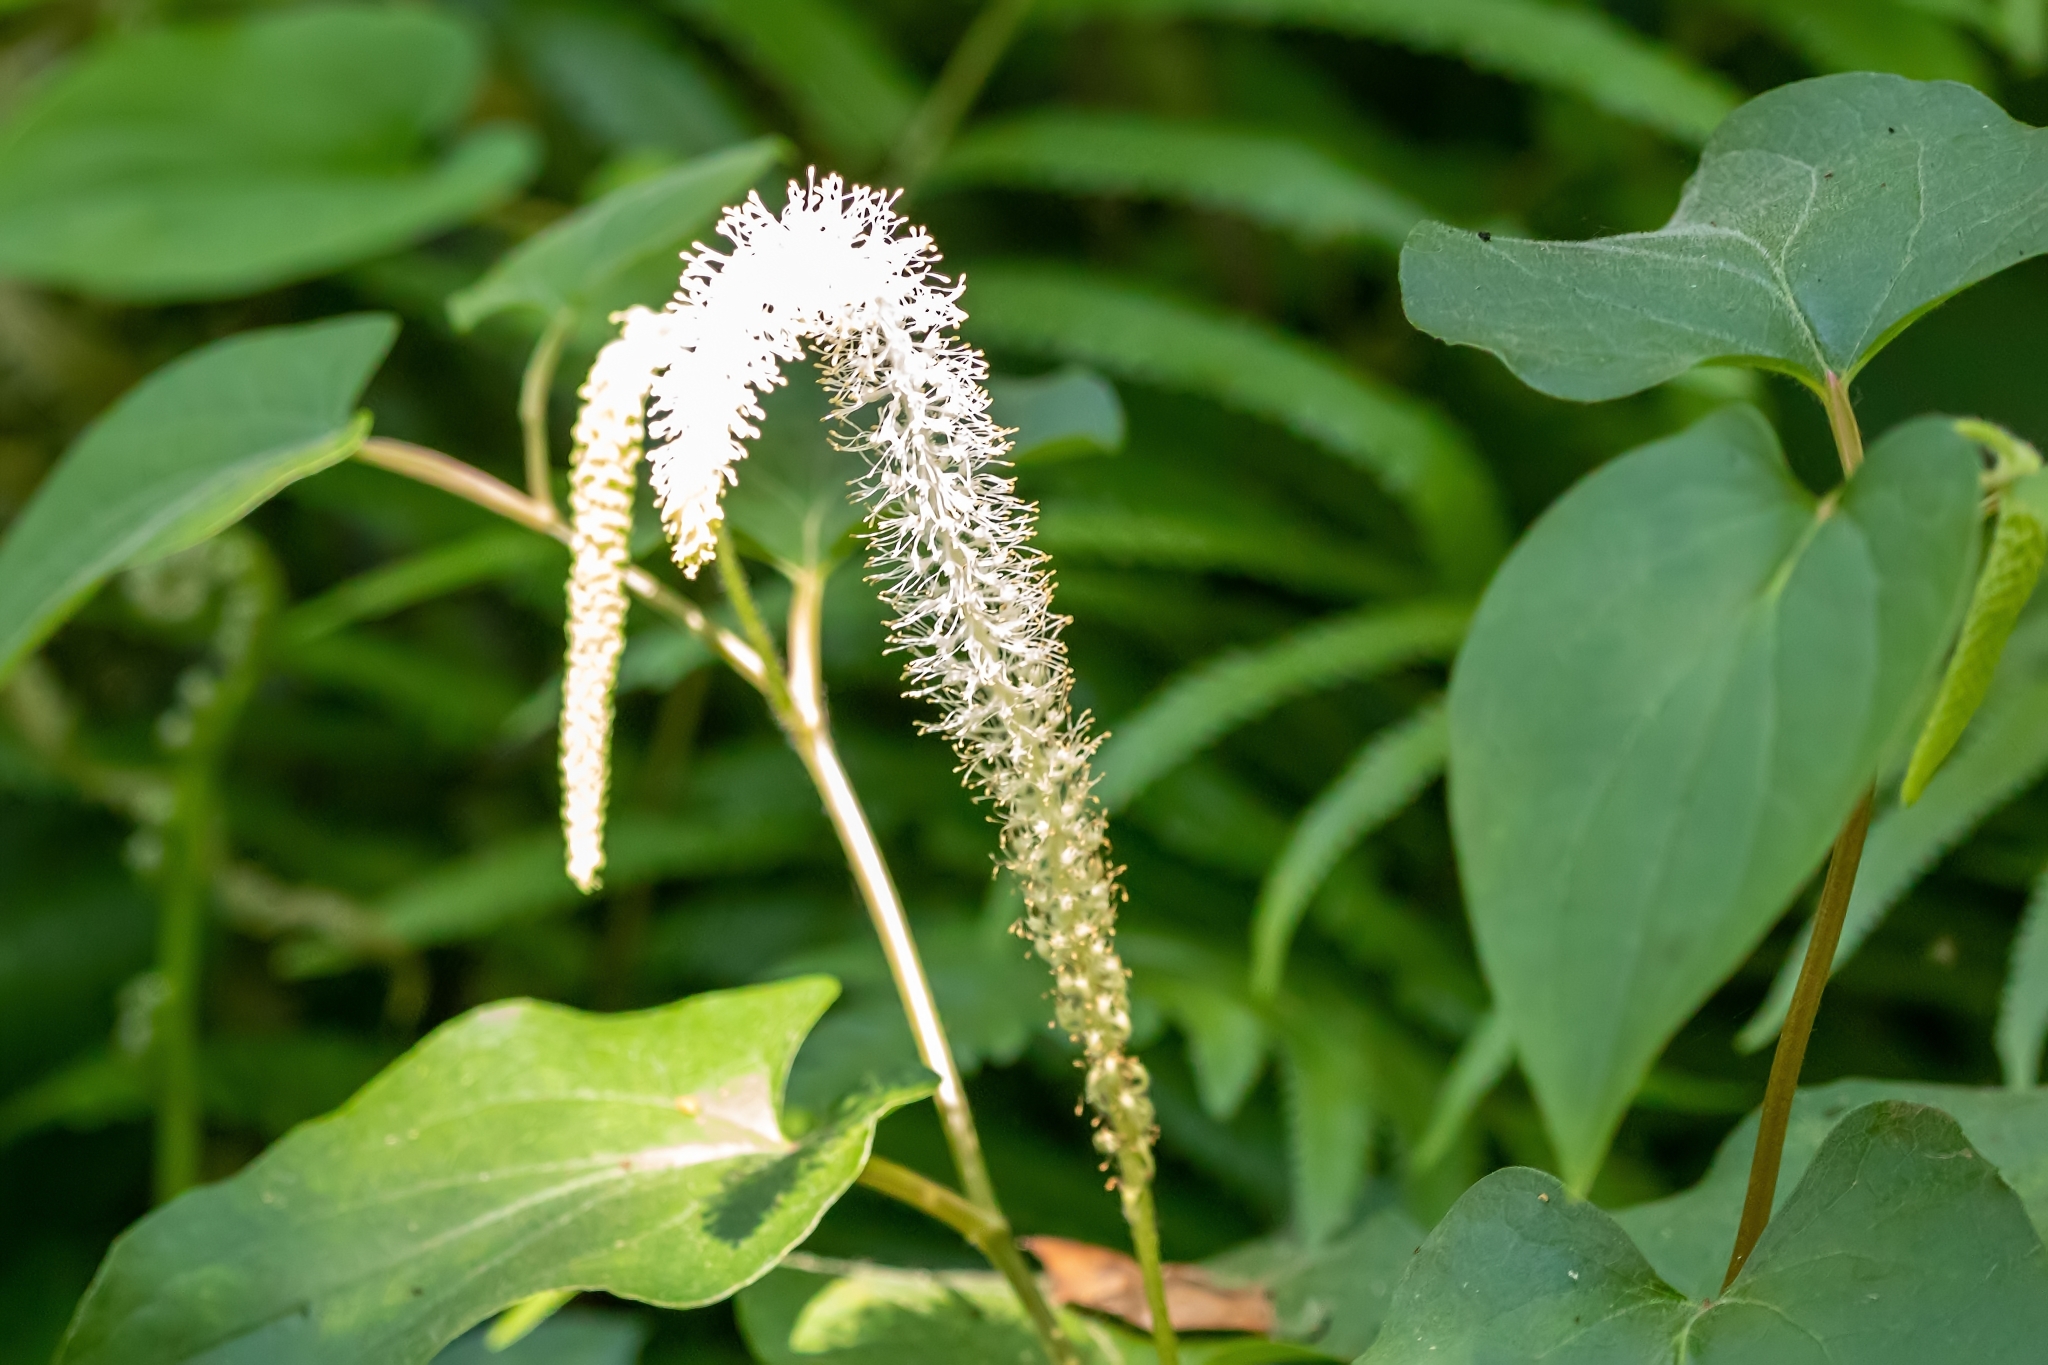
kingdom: Plantae
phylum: Tracheophyta
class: Magnoliopsida
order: Piperales
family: Saururaceae
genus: Saururus
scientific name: Saururus cernuus
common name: Lizard's-tail
